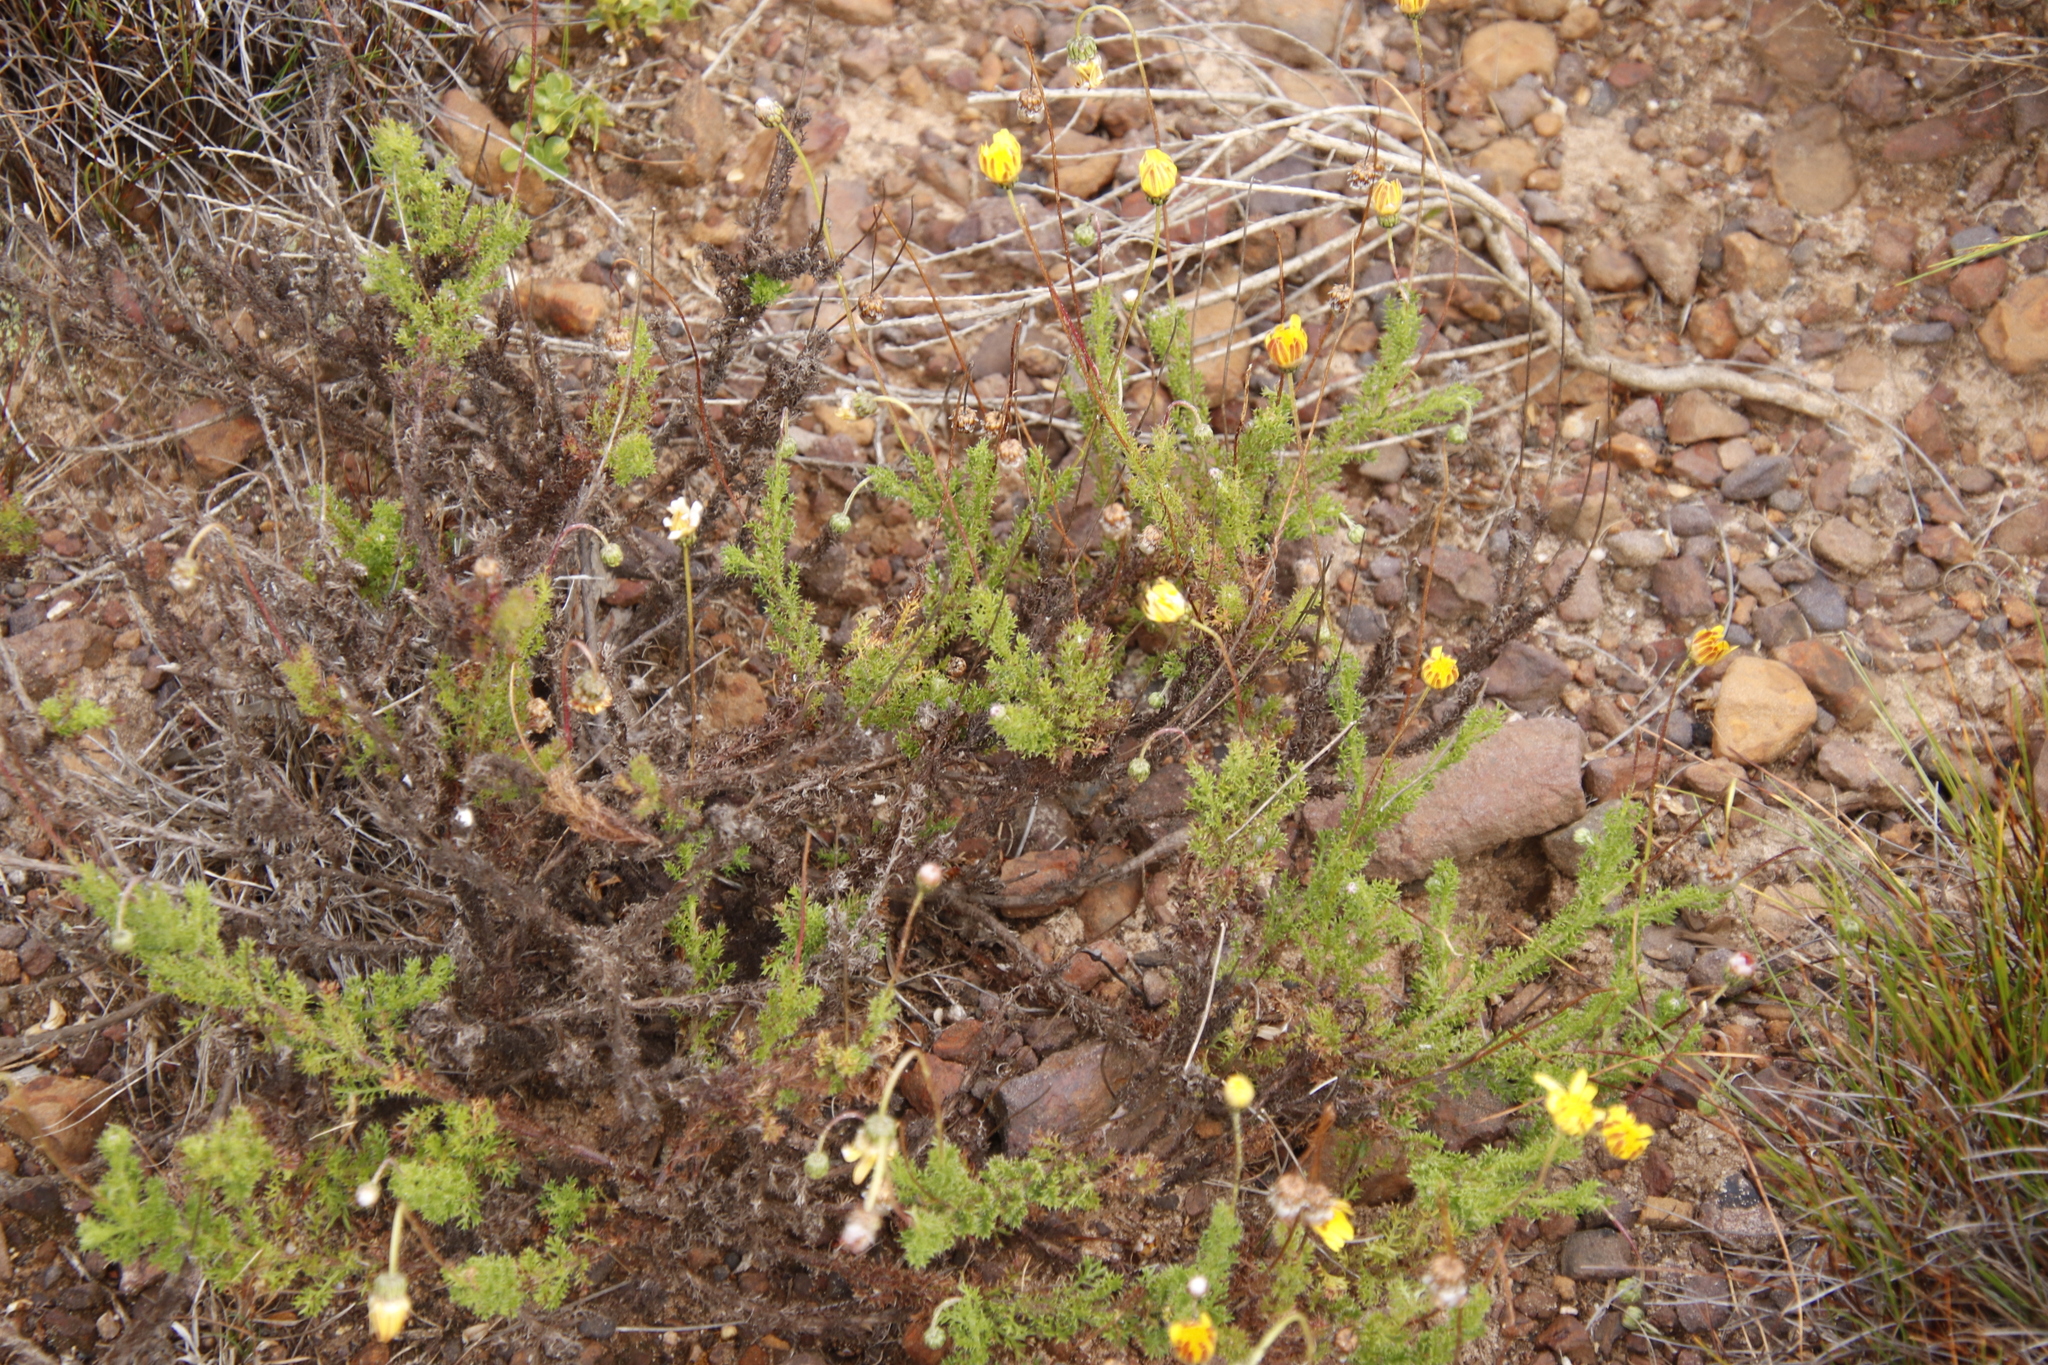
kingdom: Plantae
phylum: Tracheophyta
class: Magnoliopsida
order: Asterales
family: Asteraceae
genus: Ursinia
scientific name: Ursinia dentata
